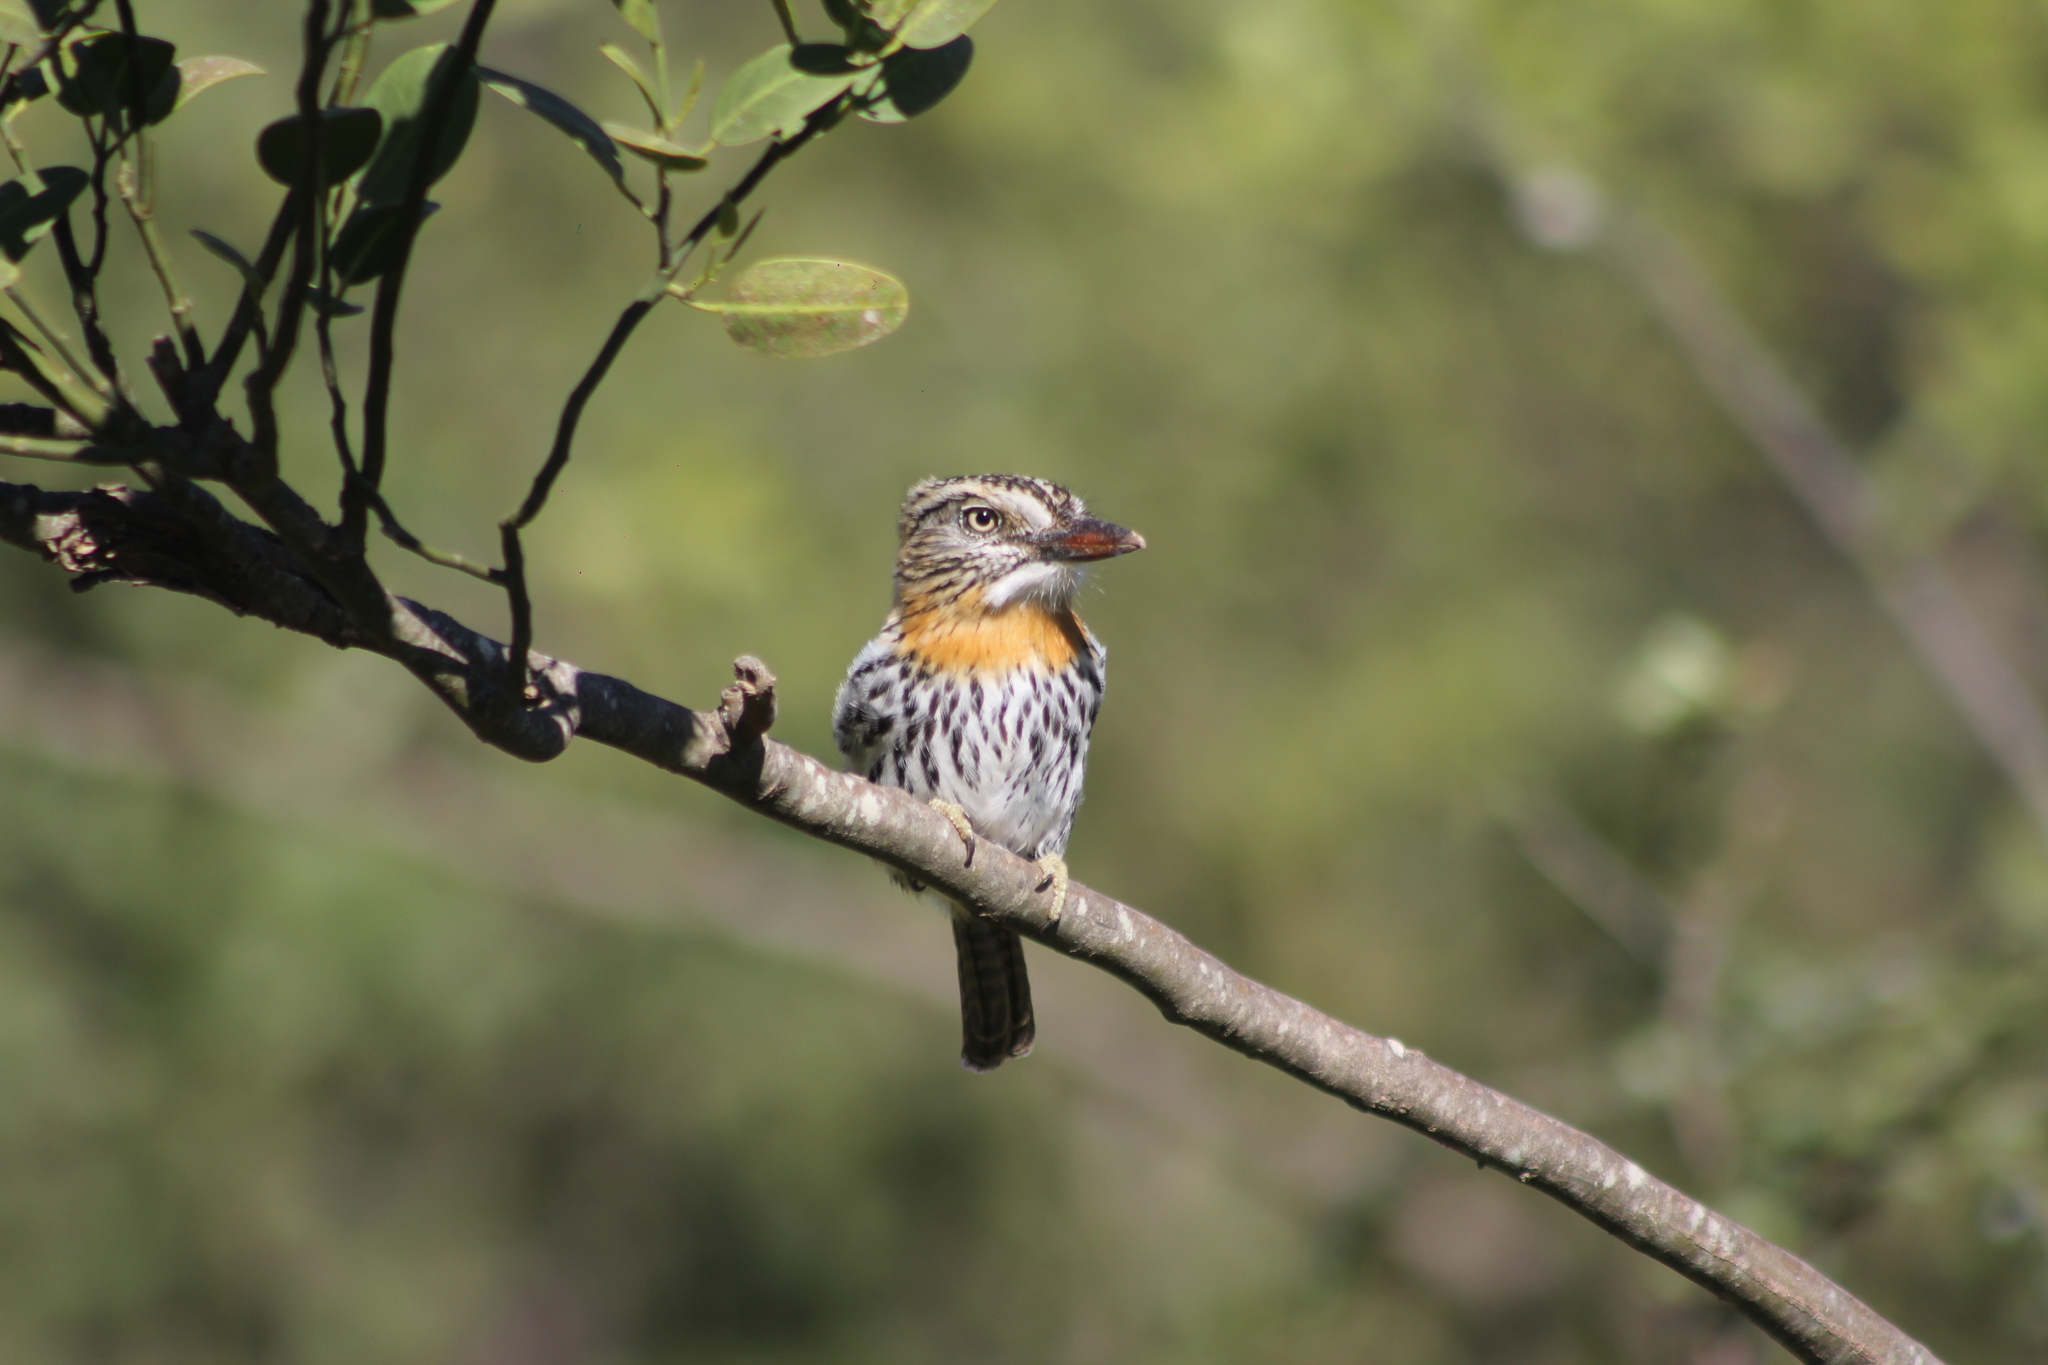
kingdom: Animalia
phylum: Chordata
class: Aves
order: Piciformes
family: Bucconidae
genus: Nystalus
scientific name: Nystalus maculatus
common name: Caatinga puffbird
